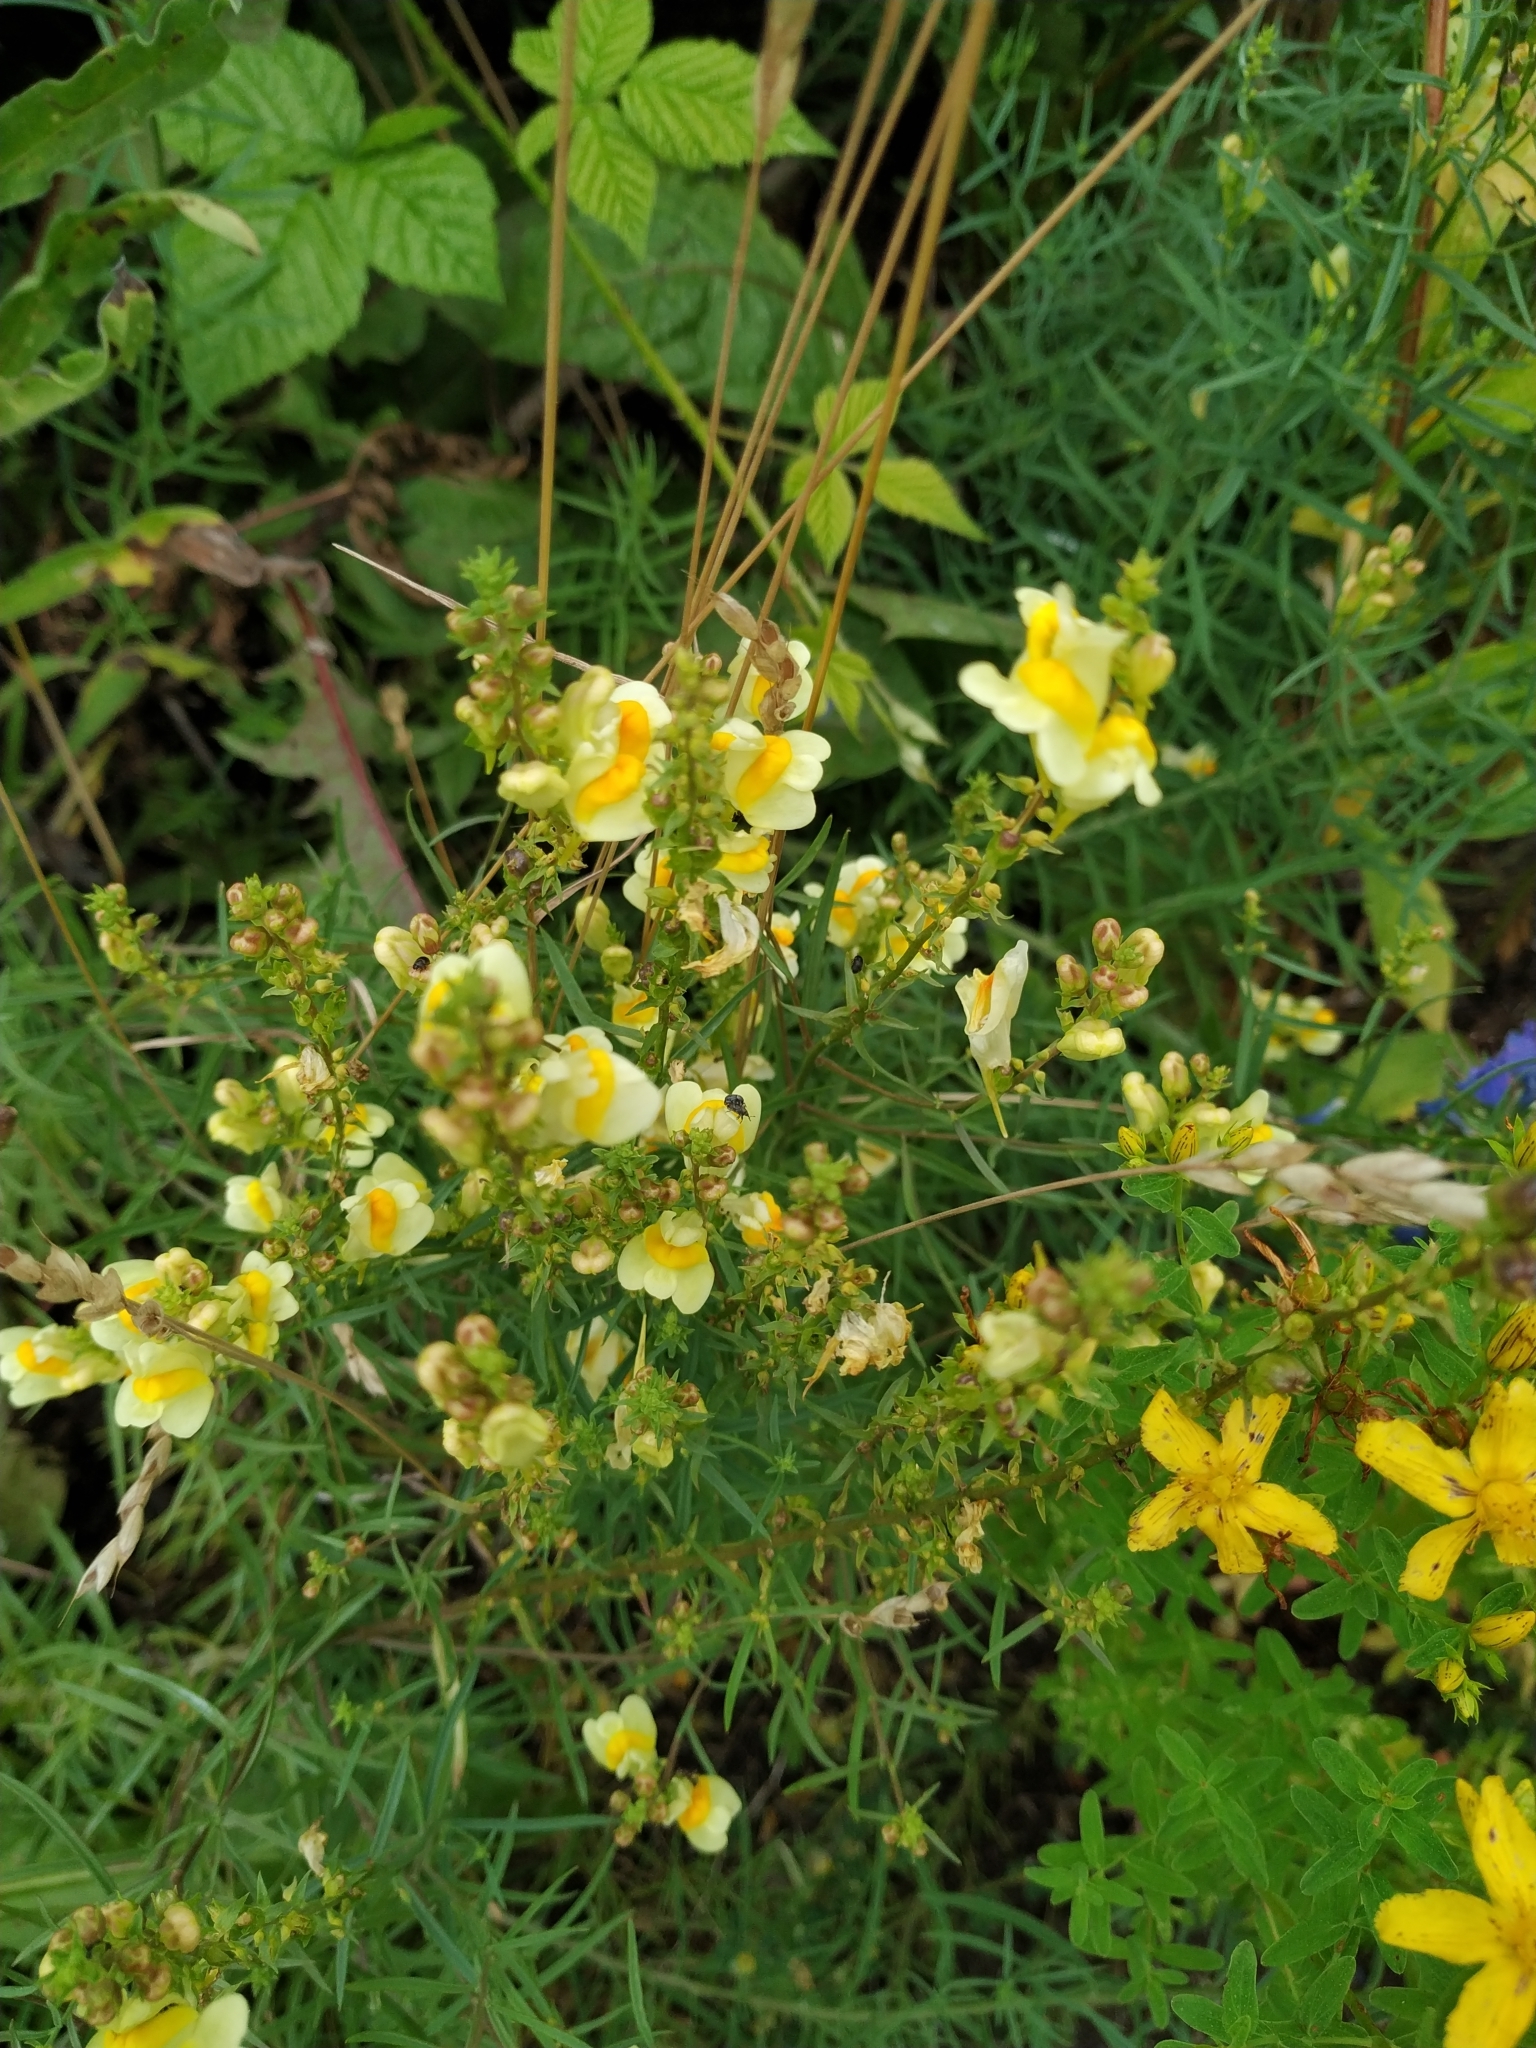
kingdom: Plantae
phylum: Tracheophyta
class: Magnoliopsida
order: Lamiales
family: Plantaginaceae
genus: Linaria
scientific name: Linaria vulgaris
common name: Butter and eggs
